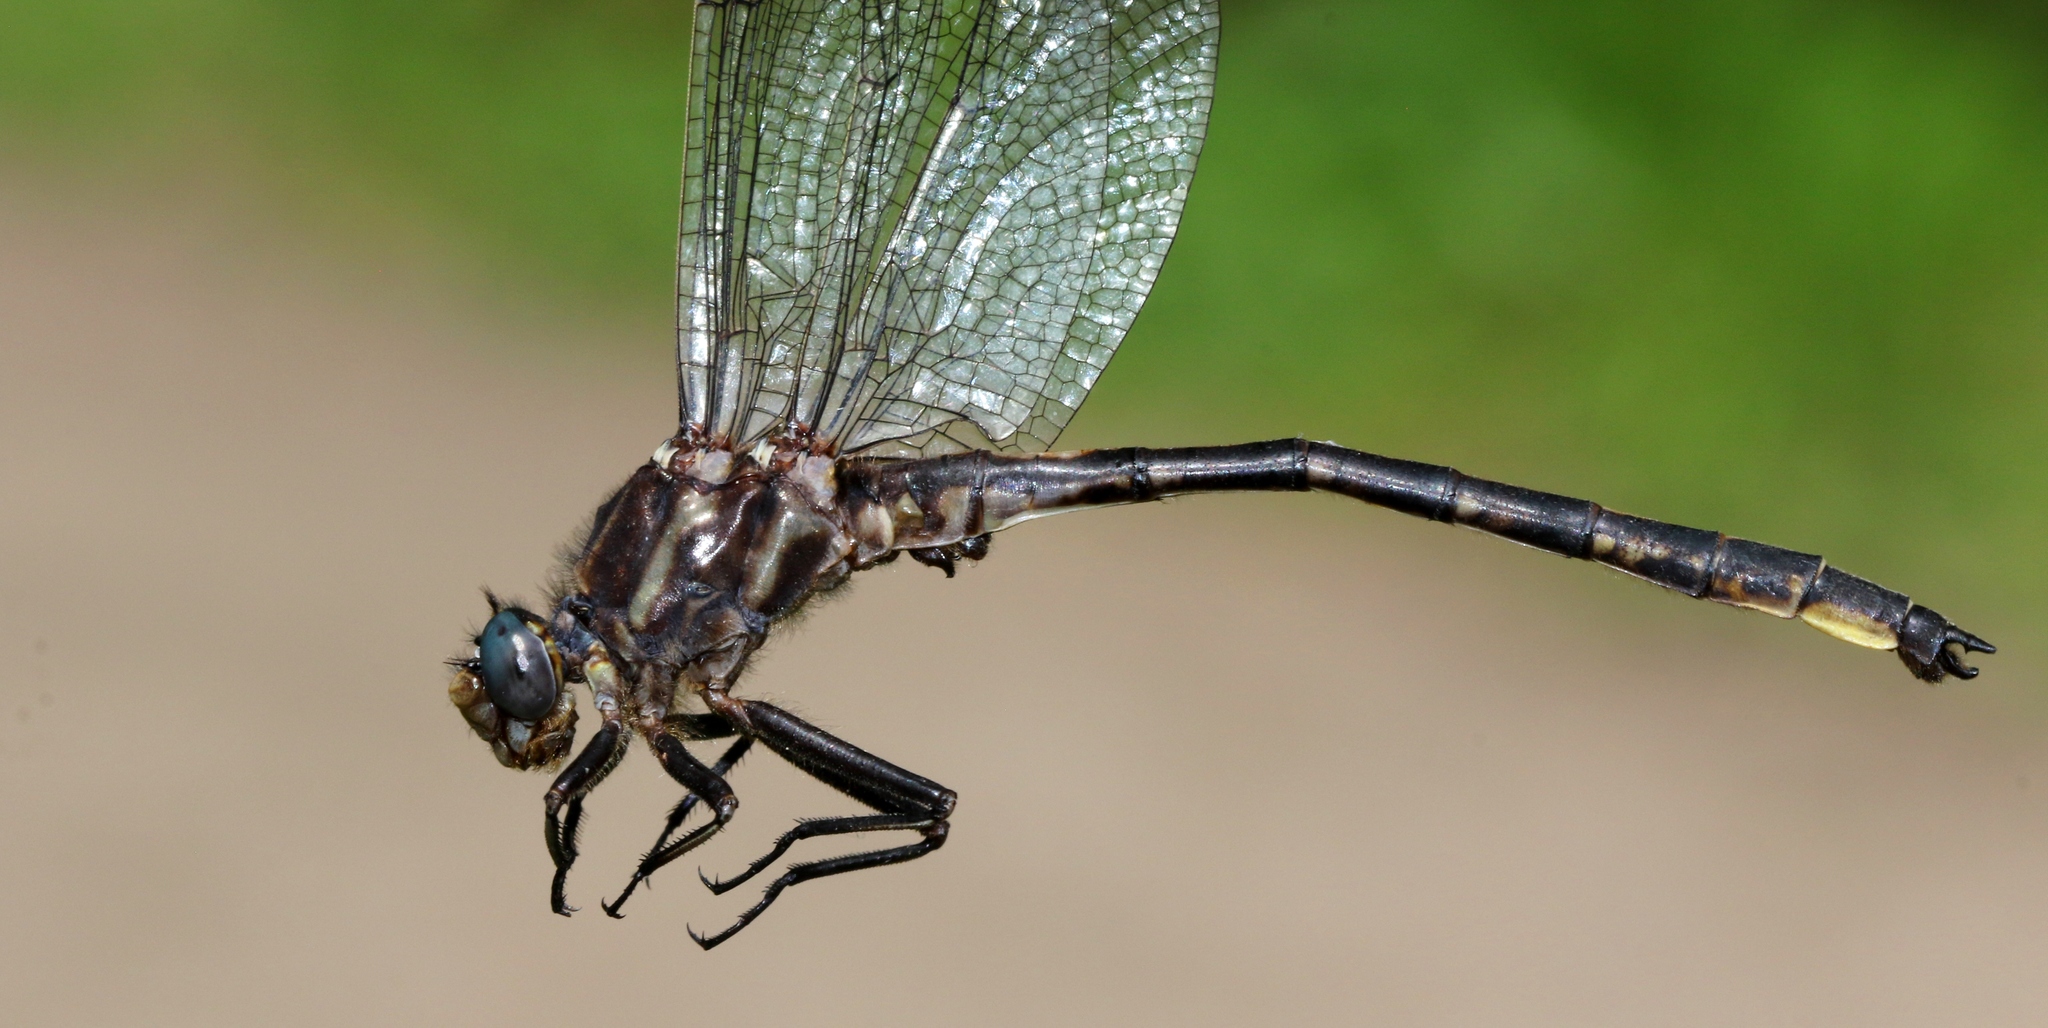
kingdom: Animalia
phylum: Arthropoda
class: Insecta
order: Odonata
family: Gomphidae
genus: Phanogomphus
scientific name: Phanogomphus spicatus
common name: Dusky clubtail
